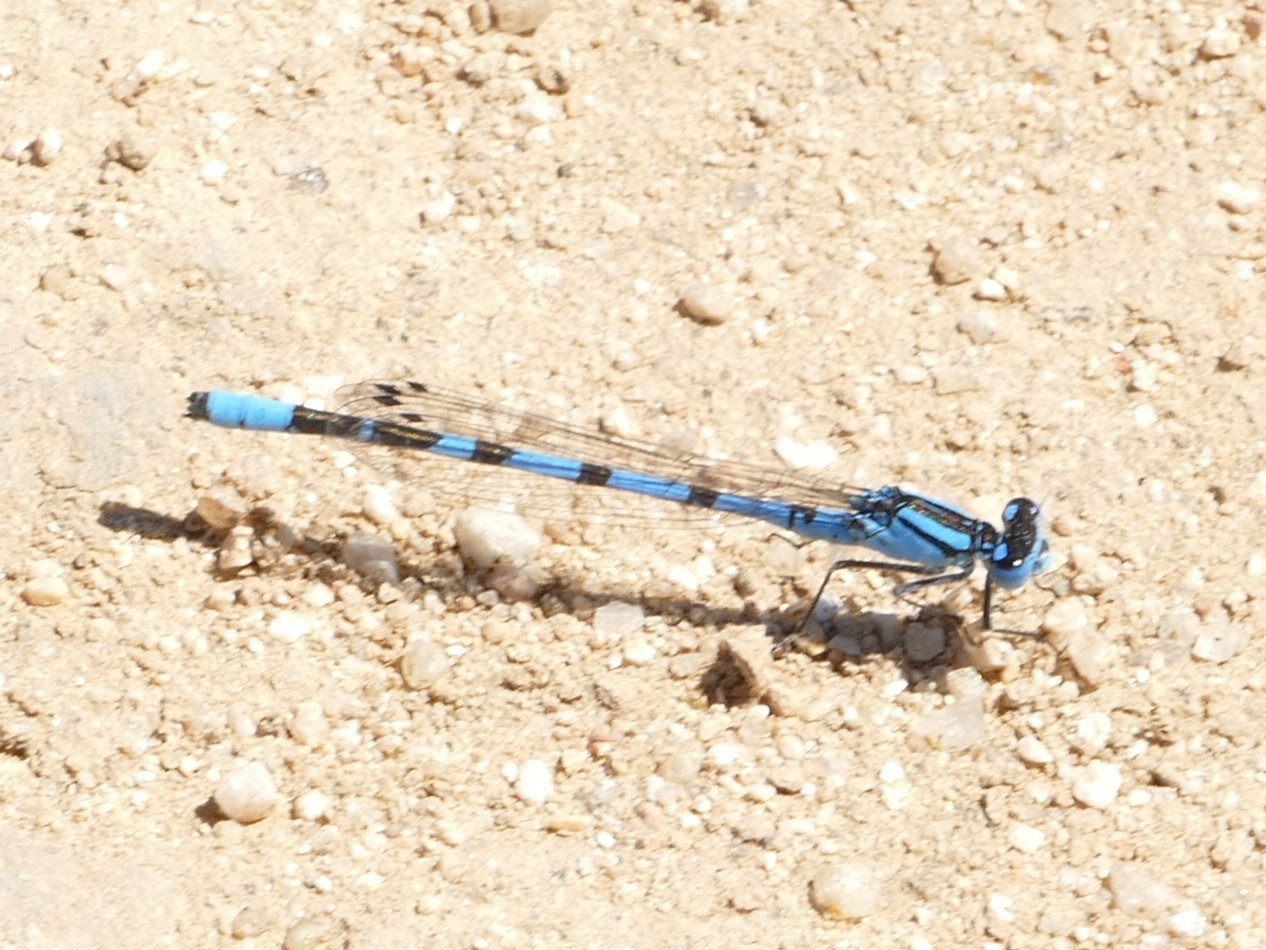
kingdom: Animalia
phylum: Arthropoda
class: Insecta
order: Odonata
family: Coenagrionidae
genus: Enallagma
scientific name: Enallagma cyathigerum
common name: Common blue damselfly
